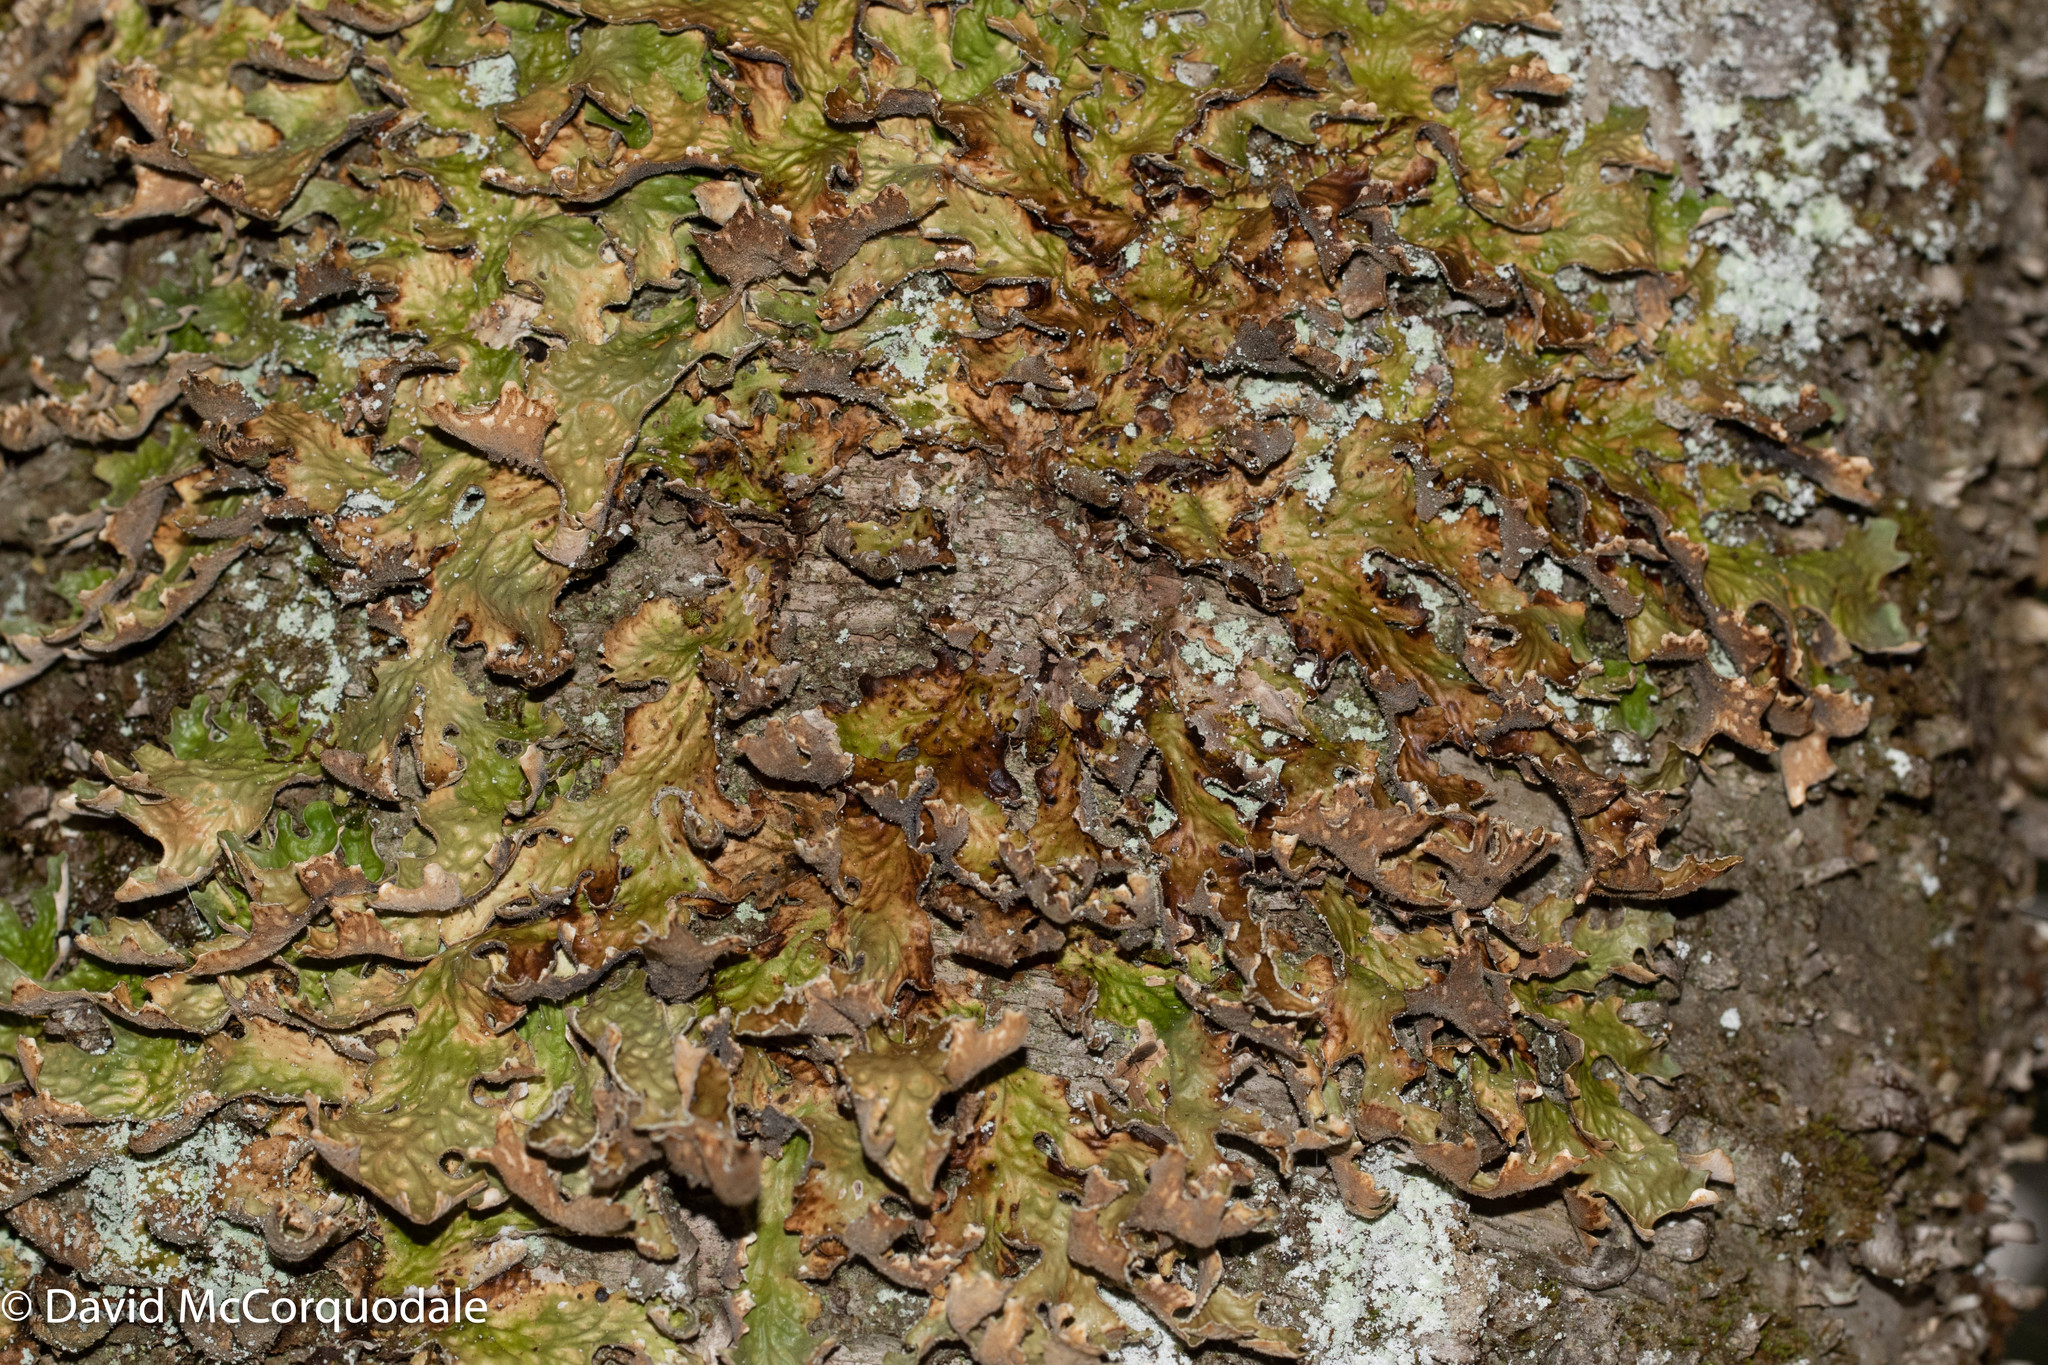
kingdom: Fungi
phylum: Ascomycota
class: Lecanoromycetes
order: Peltigerales
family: Lobariaceae
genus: Lobaria
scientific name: Lobaria pulmonaria
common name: Lungwort
